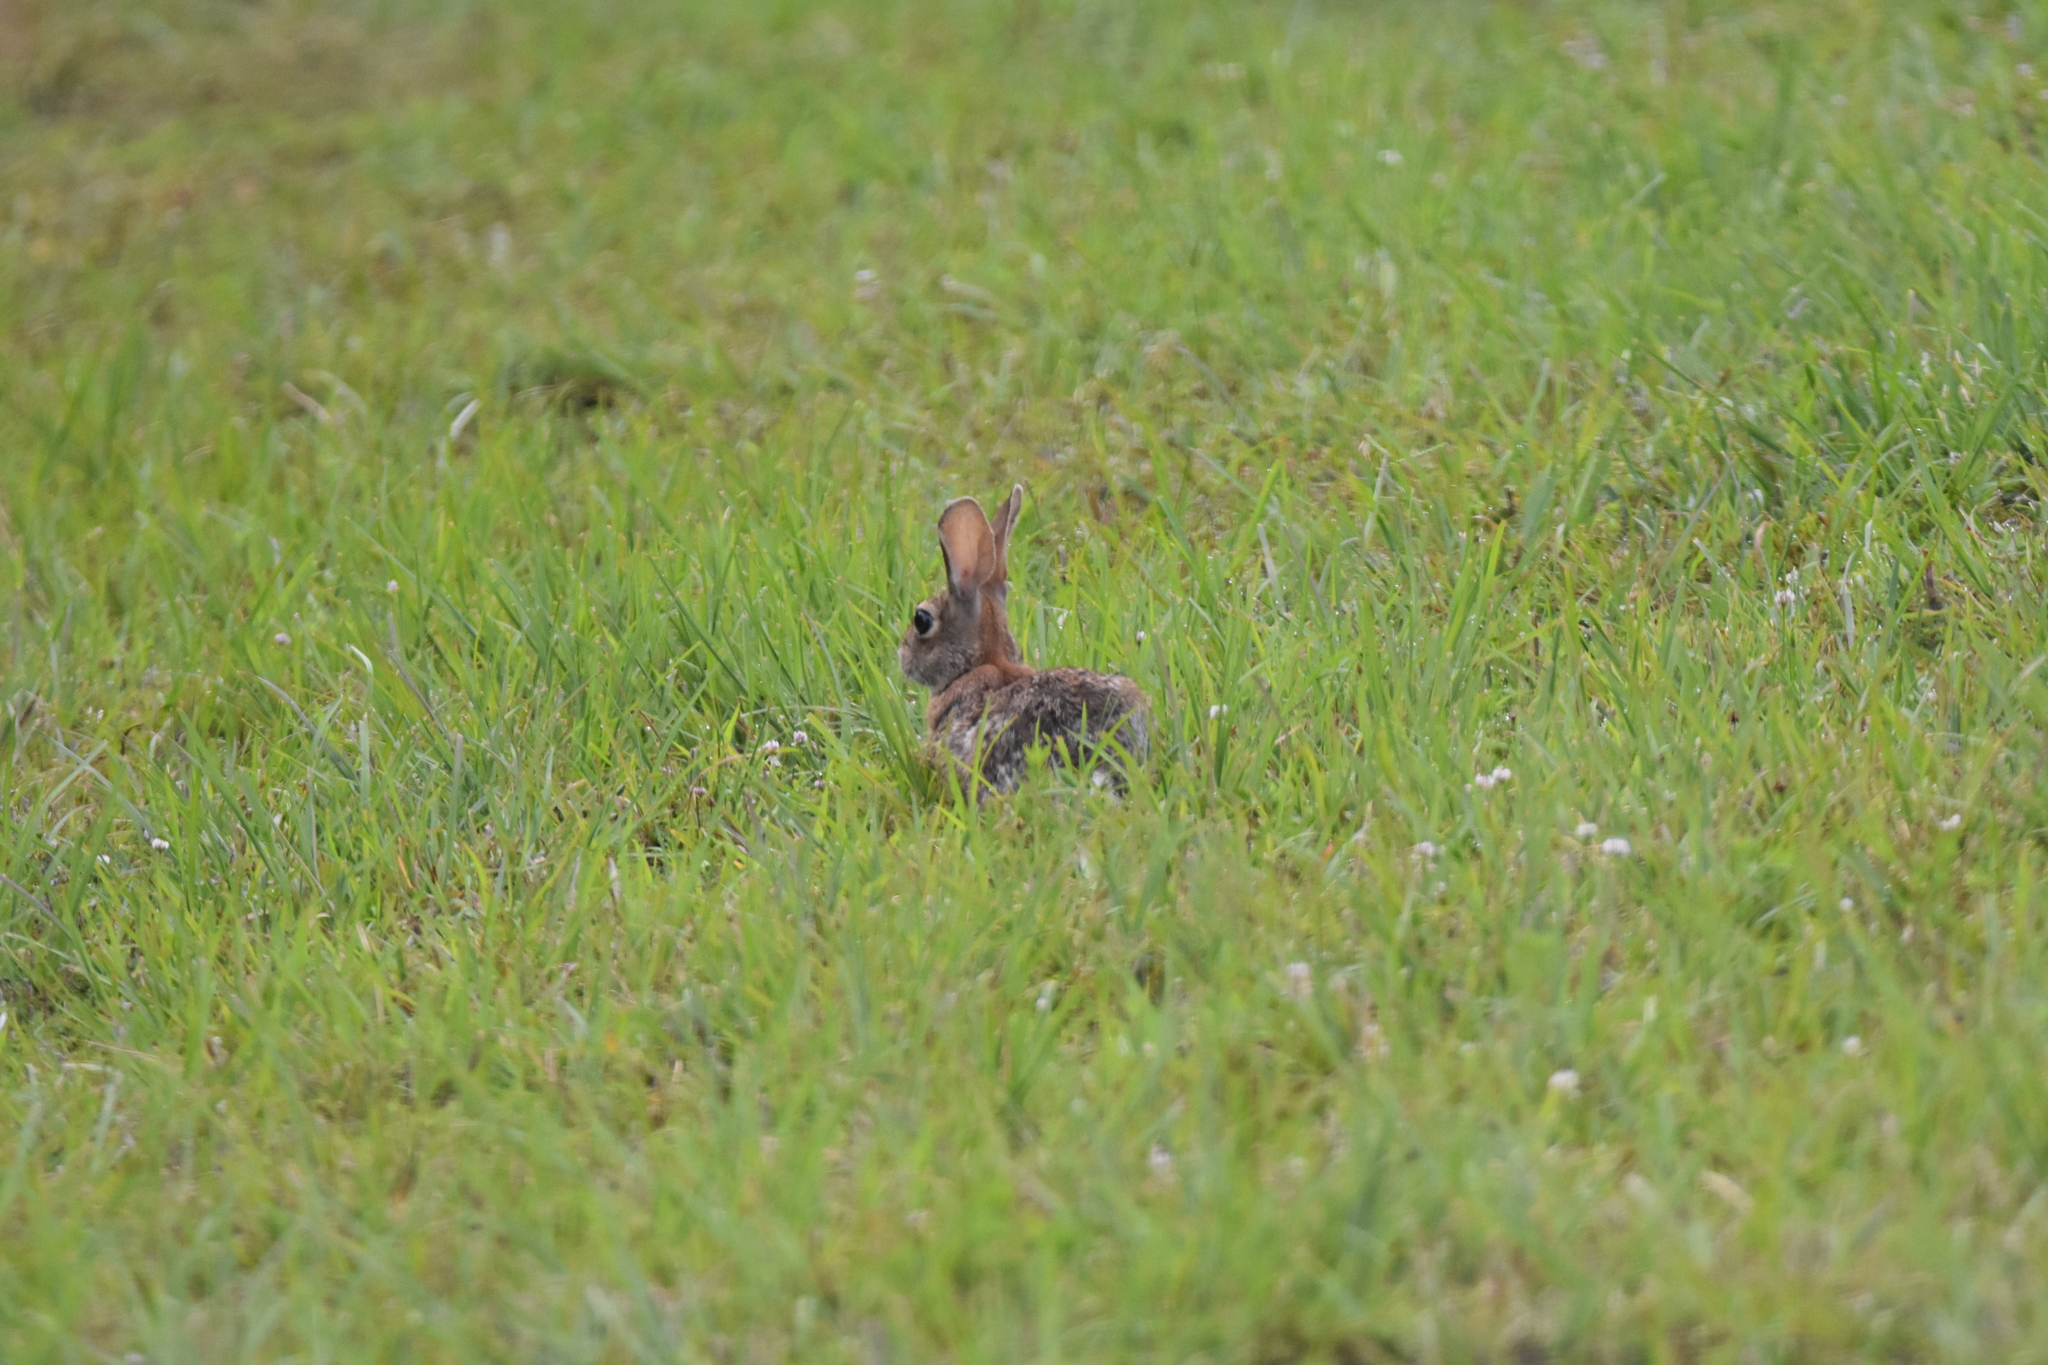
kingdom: Animalia
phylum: Chordata
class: Mammalia
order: Lagomorpha
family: Leporidae
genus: Sylvilagus
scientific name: Sylvilagus floridanus
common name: Eastern cottontail
